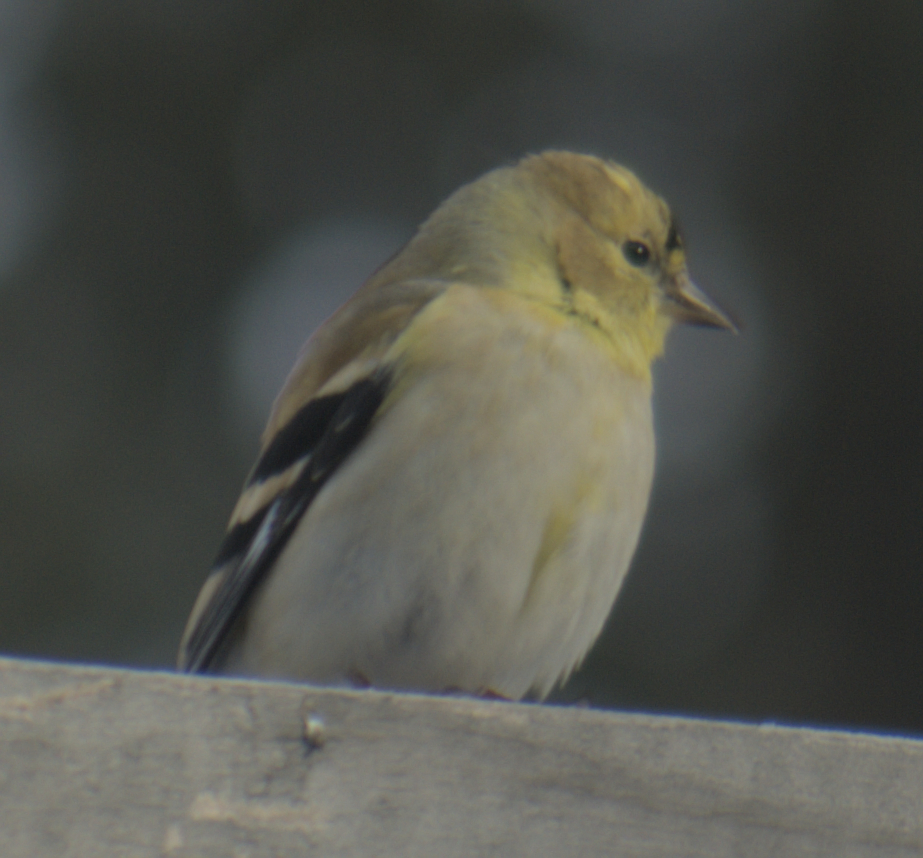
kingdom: Animalia
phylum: Chordata
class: Aves
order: Passeriformes
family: Fringillidae
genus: Spinus
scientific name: Spinus tristis
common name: American goldfinch
